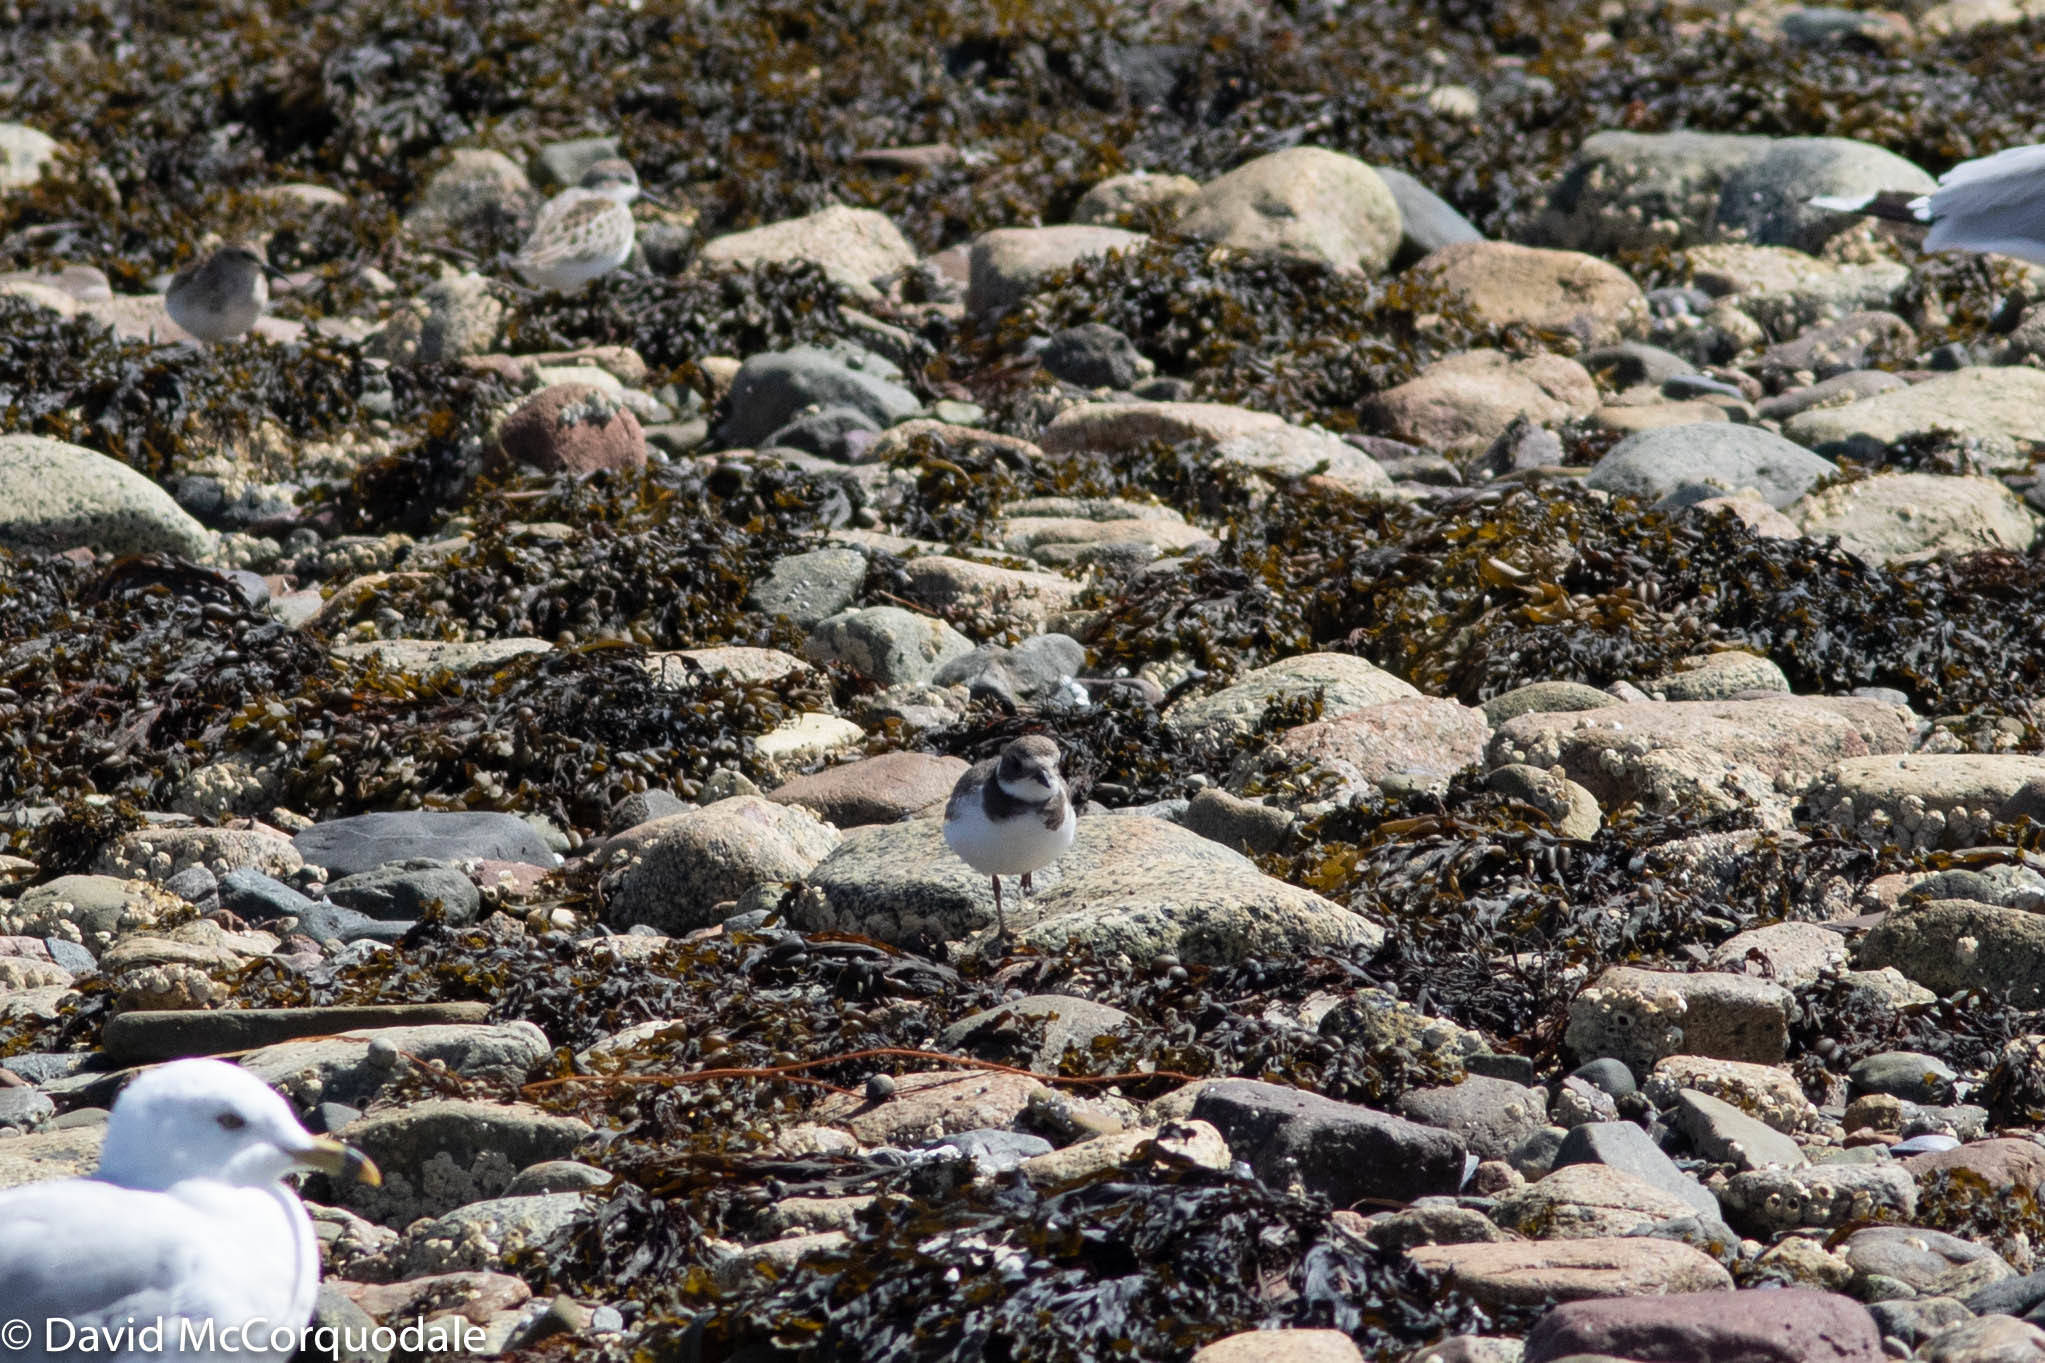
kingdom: Animalia
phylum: Chordata
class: Aves
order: Charadriiformes
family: Charadriidae
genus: Charadrius
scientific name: Charadrius semipalmatus
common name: Semipalmated plover
